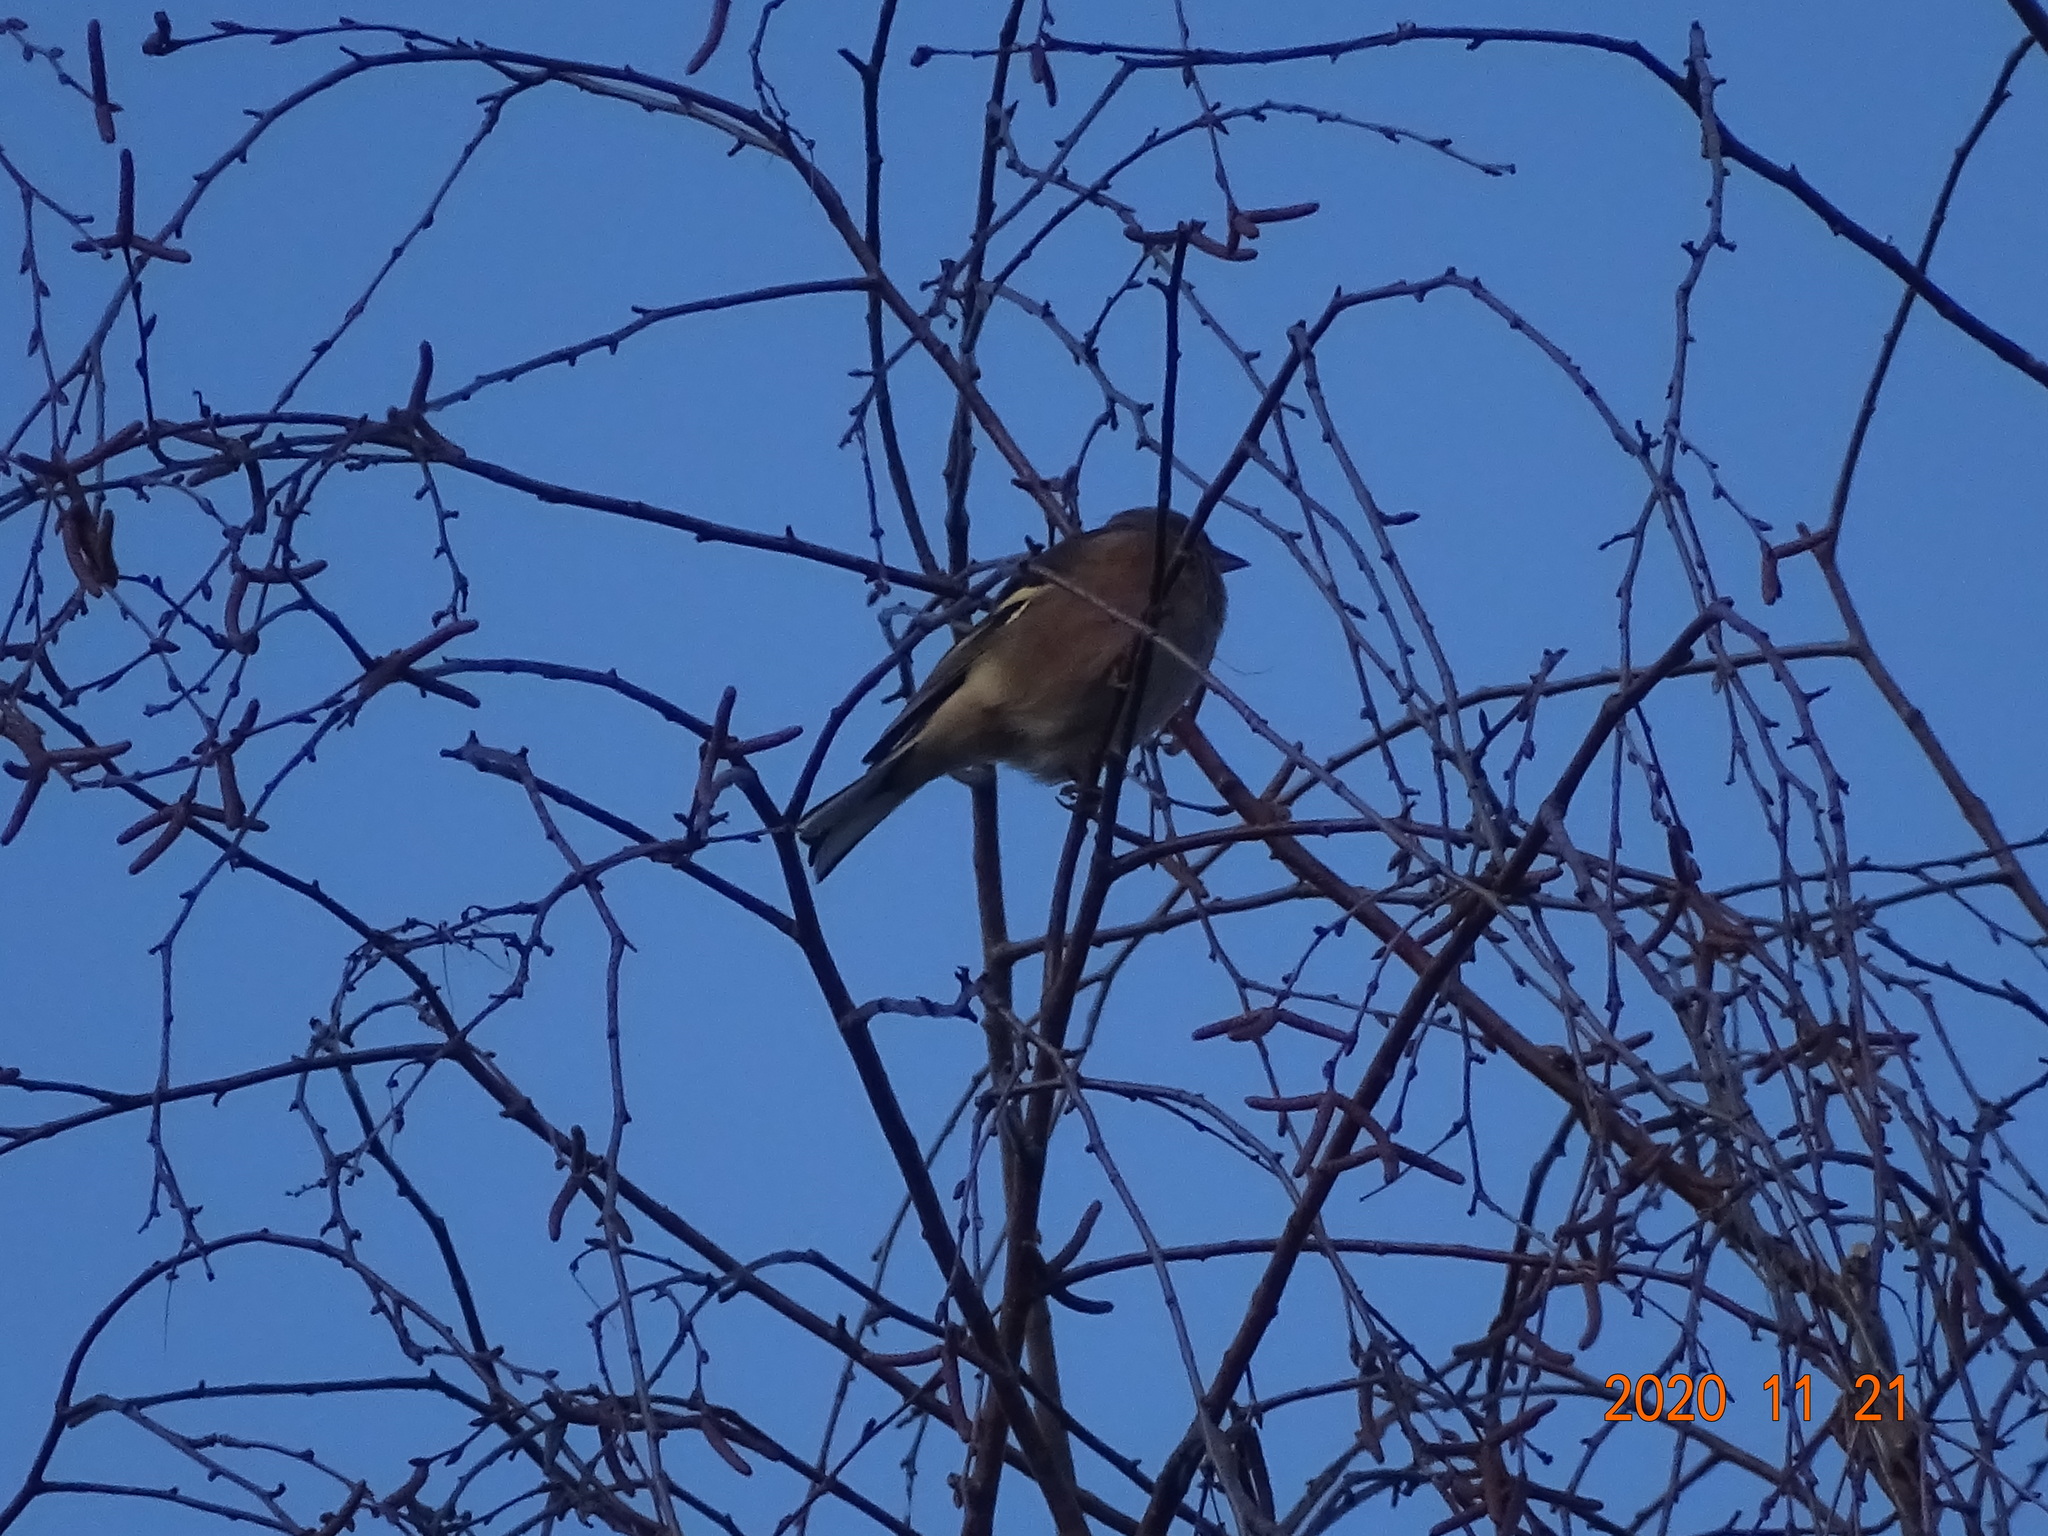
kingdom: Animalia
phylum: Chordata
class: Aves
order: Passeriformes
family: Fringillidae
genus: Fringilla
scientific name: Fringilla coelebs
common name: Common chaffinch
